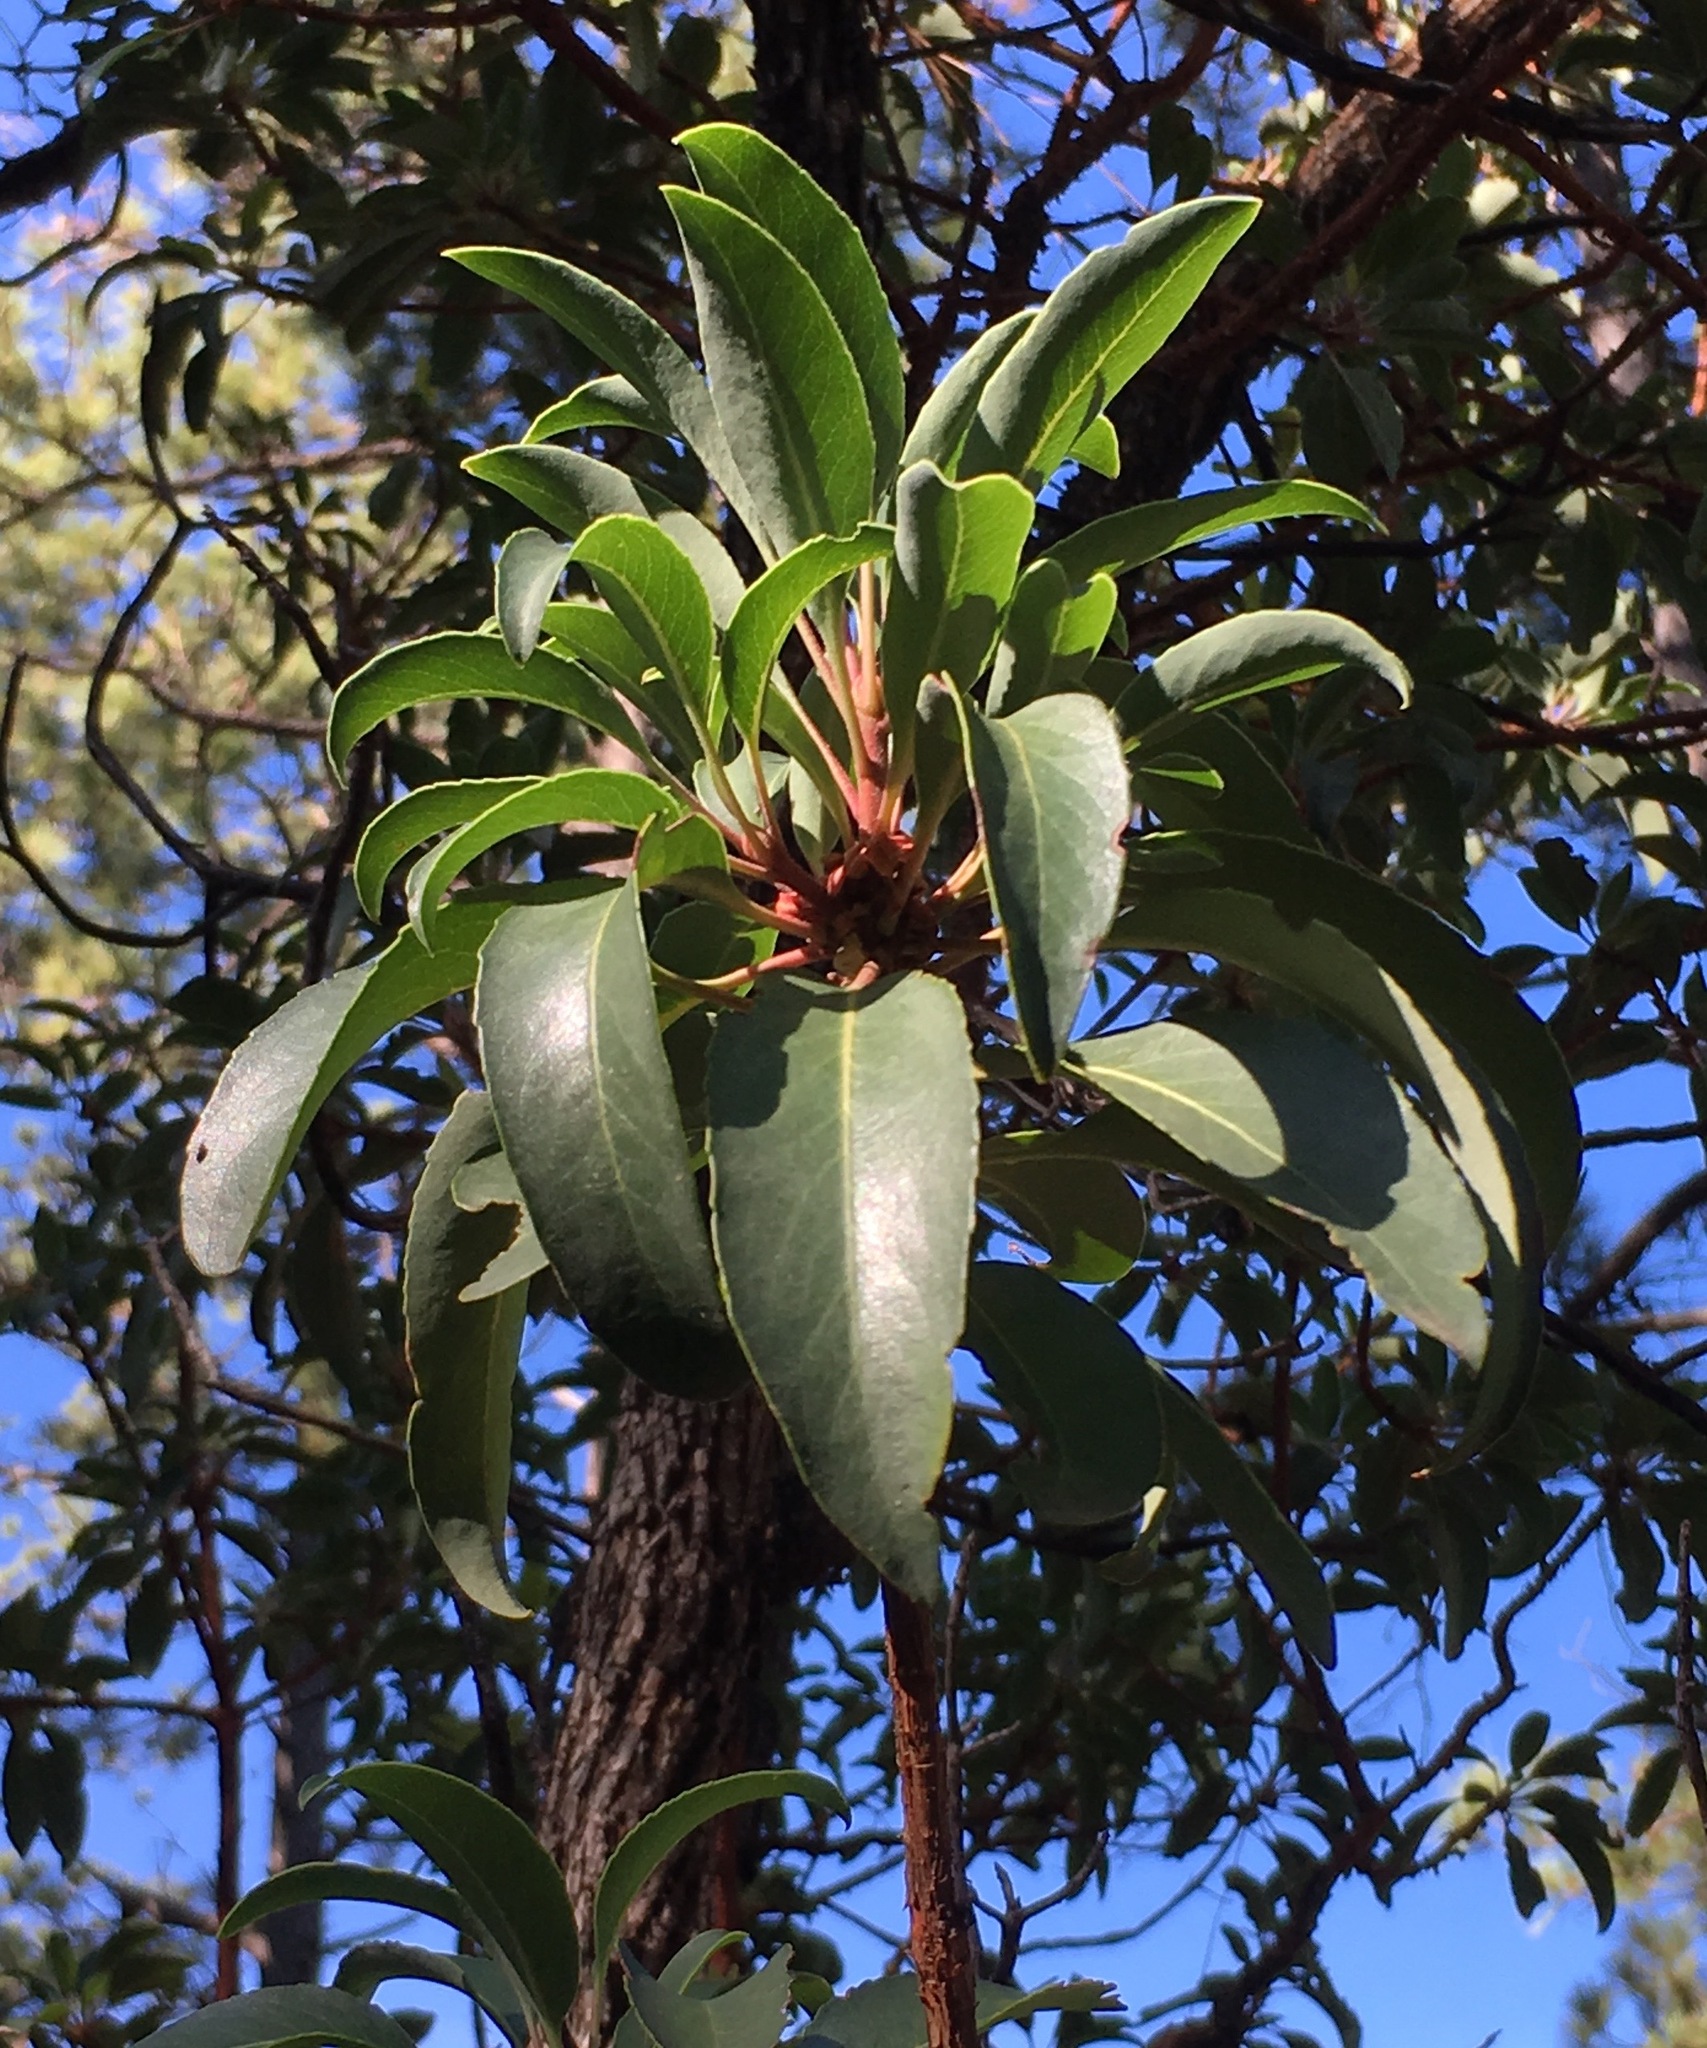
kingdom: Plantae
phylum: Tracheophyta
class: Magnoliopsida
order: Ericales
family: Ericaceae
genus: Arbutus
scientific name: Arbutus arizonica
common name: Arizona madrone
